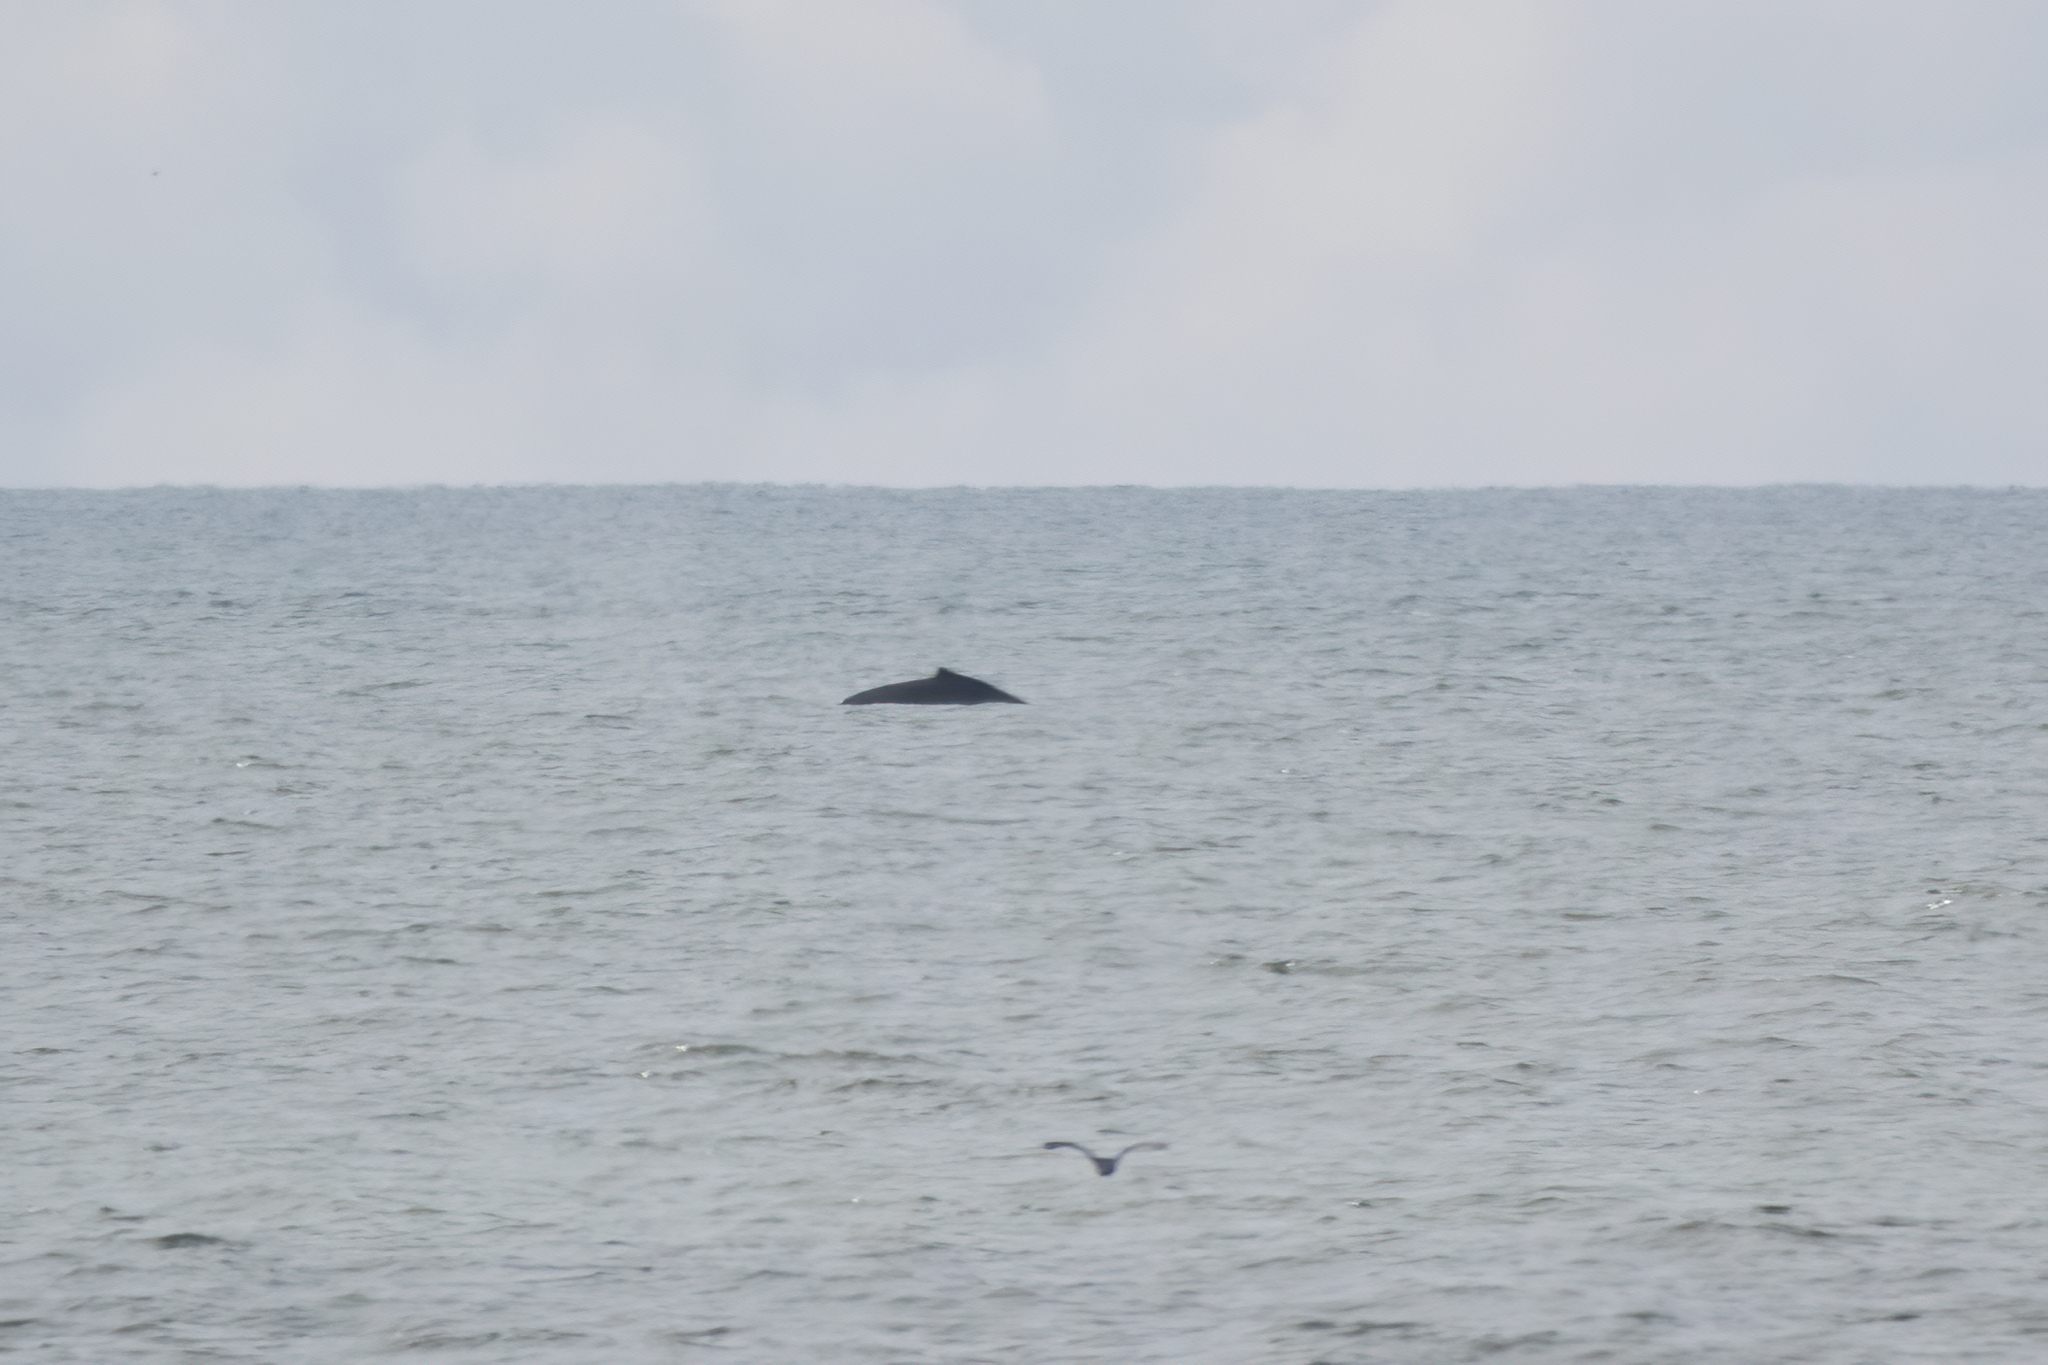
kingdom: Animalia
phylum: Chordata
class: Mammalia
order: Cetacea
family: Balaenopteridae
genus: Megaptera
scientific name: Megaptera novaeangliae
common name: Humpback whale
